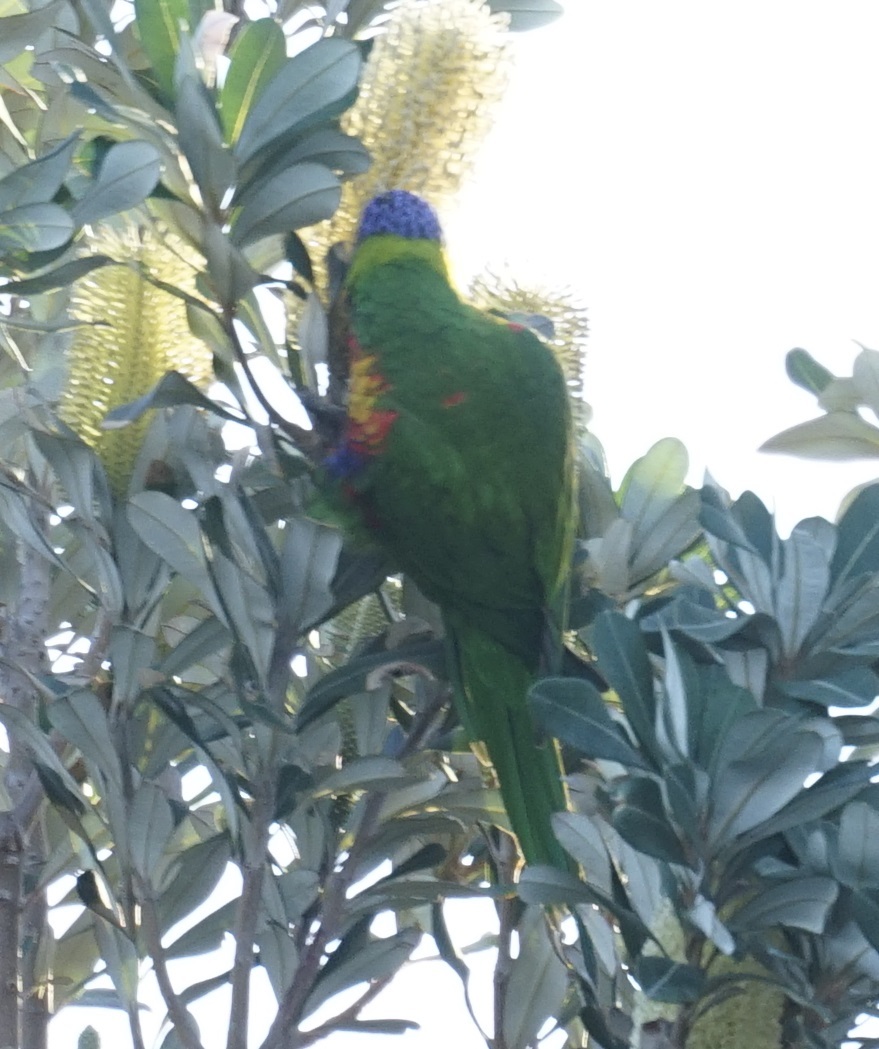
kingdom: Animalia
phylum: Chordata
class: Aves
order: Psittaciformes
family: Psittacidae
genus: Trichoglossus
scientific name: Trichoglossus haematodus
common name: Coconut lorikeet
